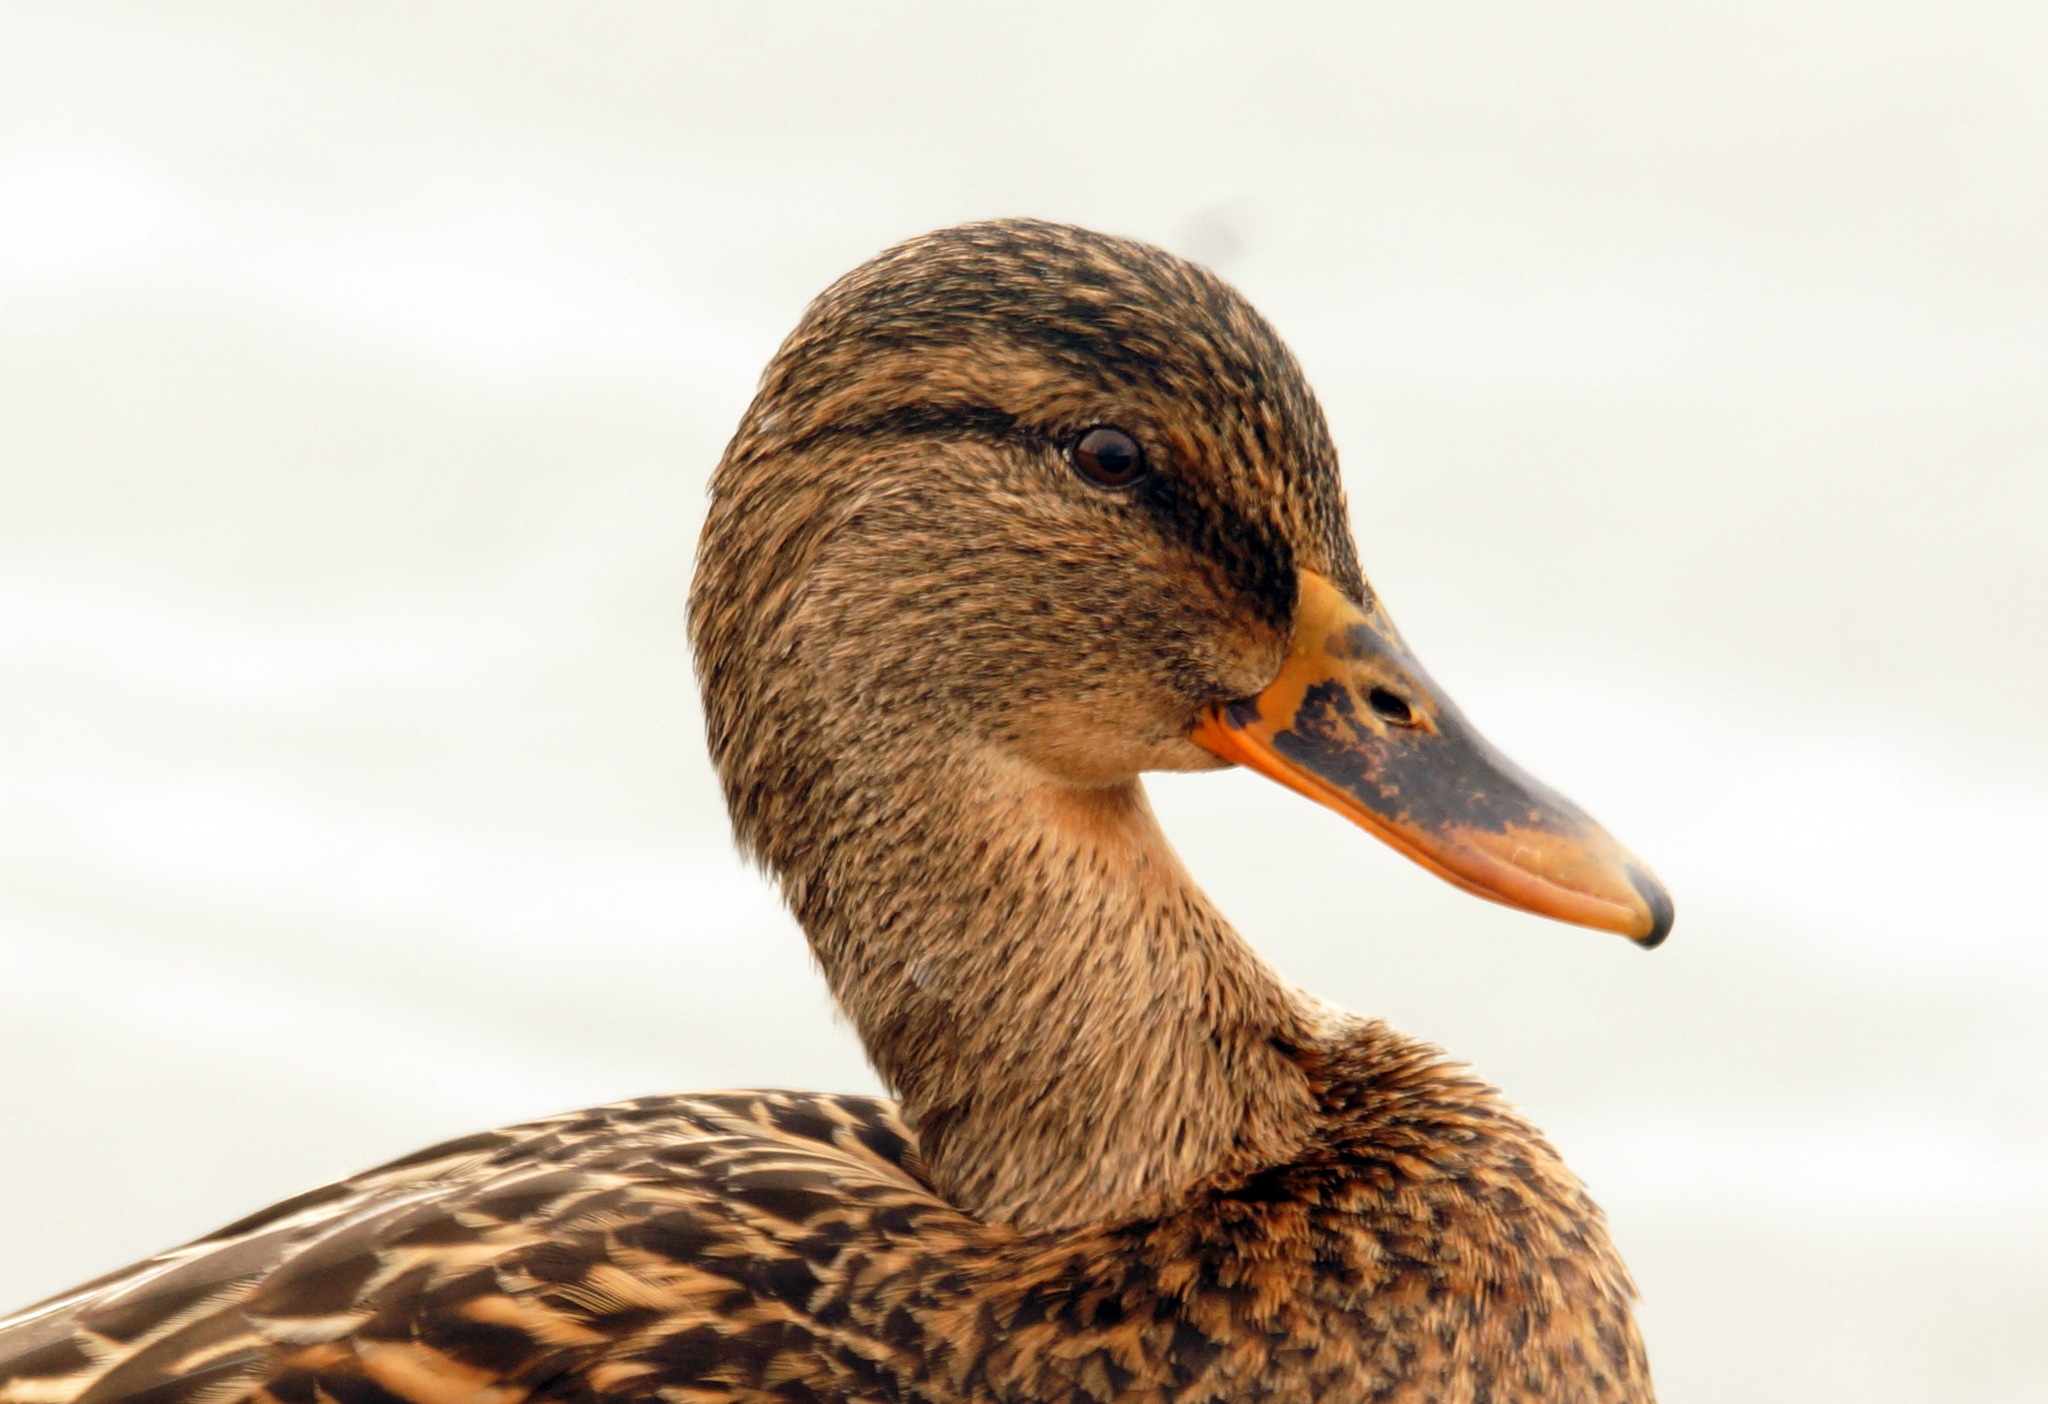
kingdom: Animalia
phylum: Chordata
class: Aves
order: Anseriformes
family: Anatidae
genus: Anas
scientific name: Anas platyrhynchos
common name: Mallard
